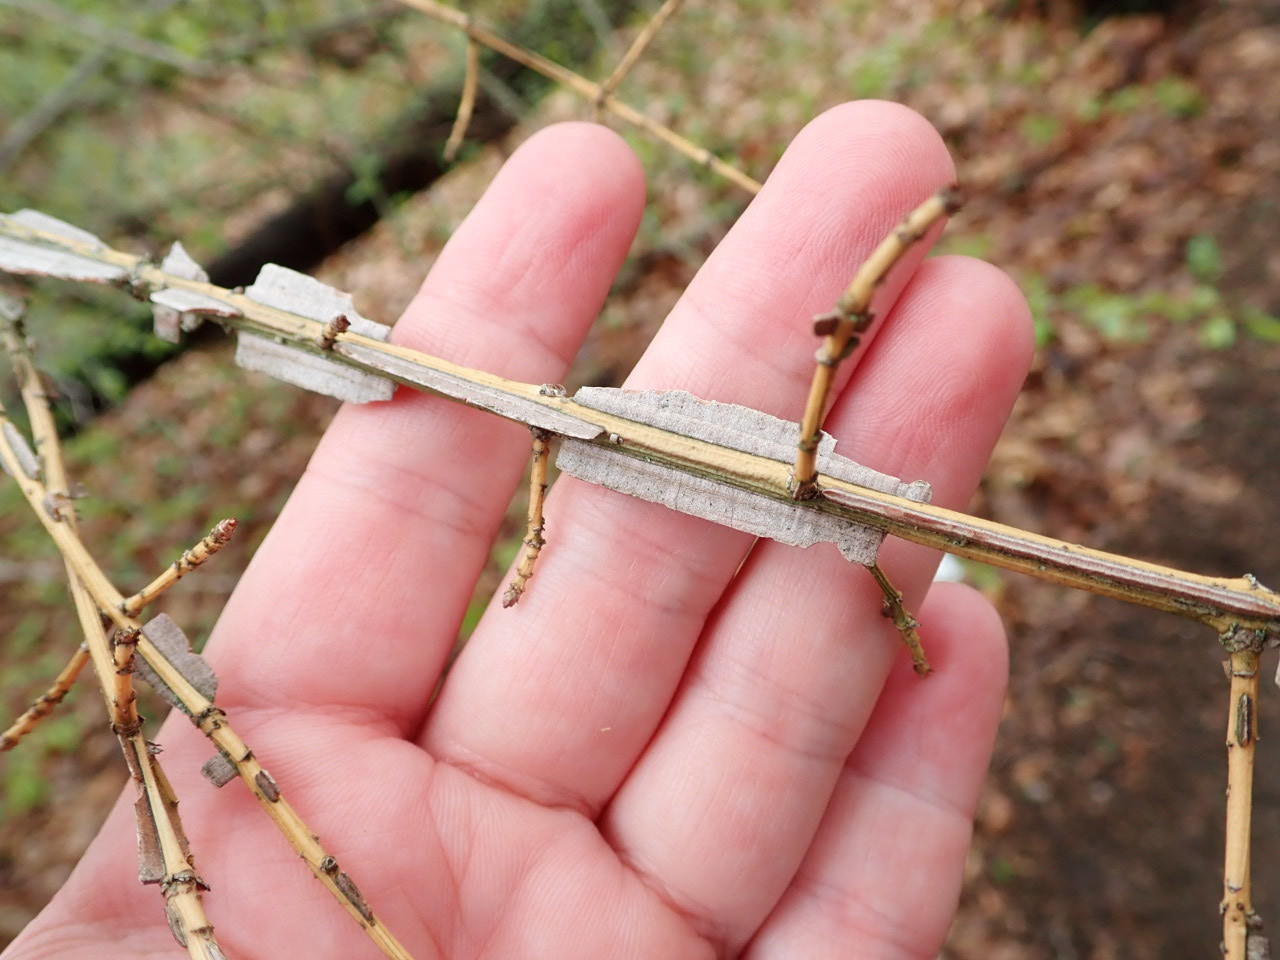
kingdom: Plantae
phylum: Tracheophyta
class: Magnoliopsida
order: Celastrales
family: Celastraceae
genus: Euonymus
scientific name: Euonymus alatus
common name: Winged euonymus
